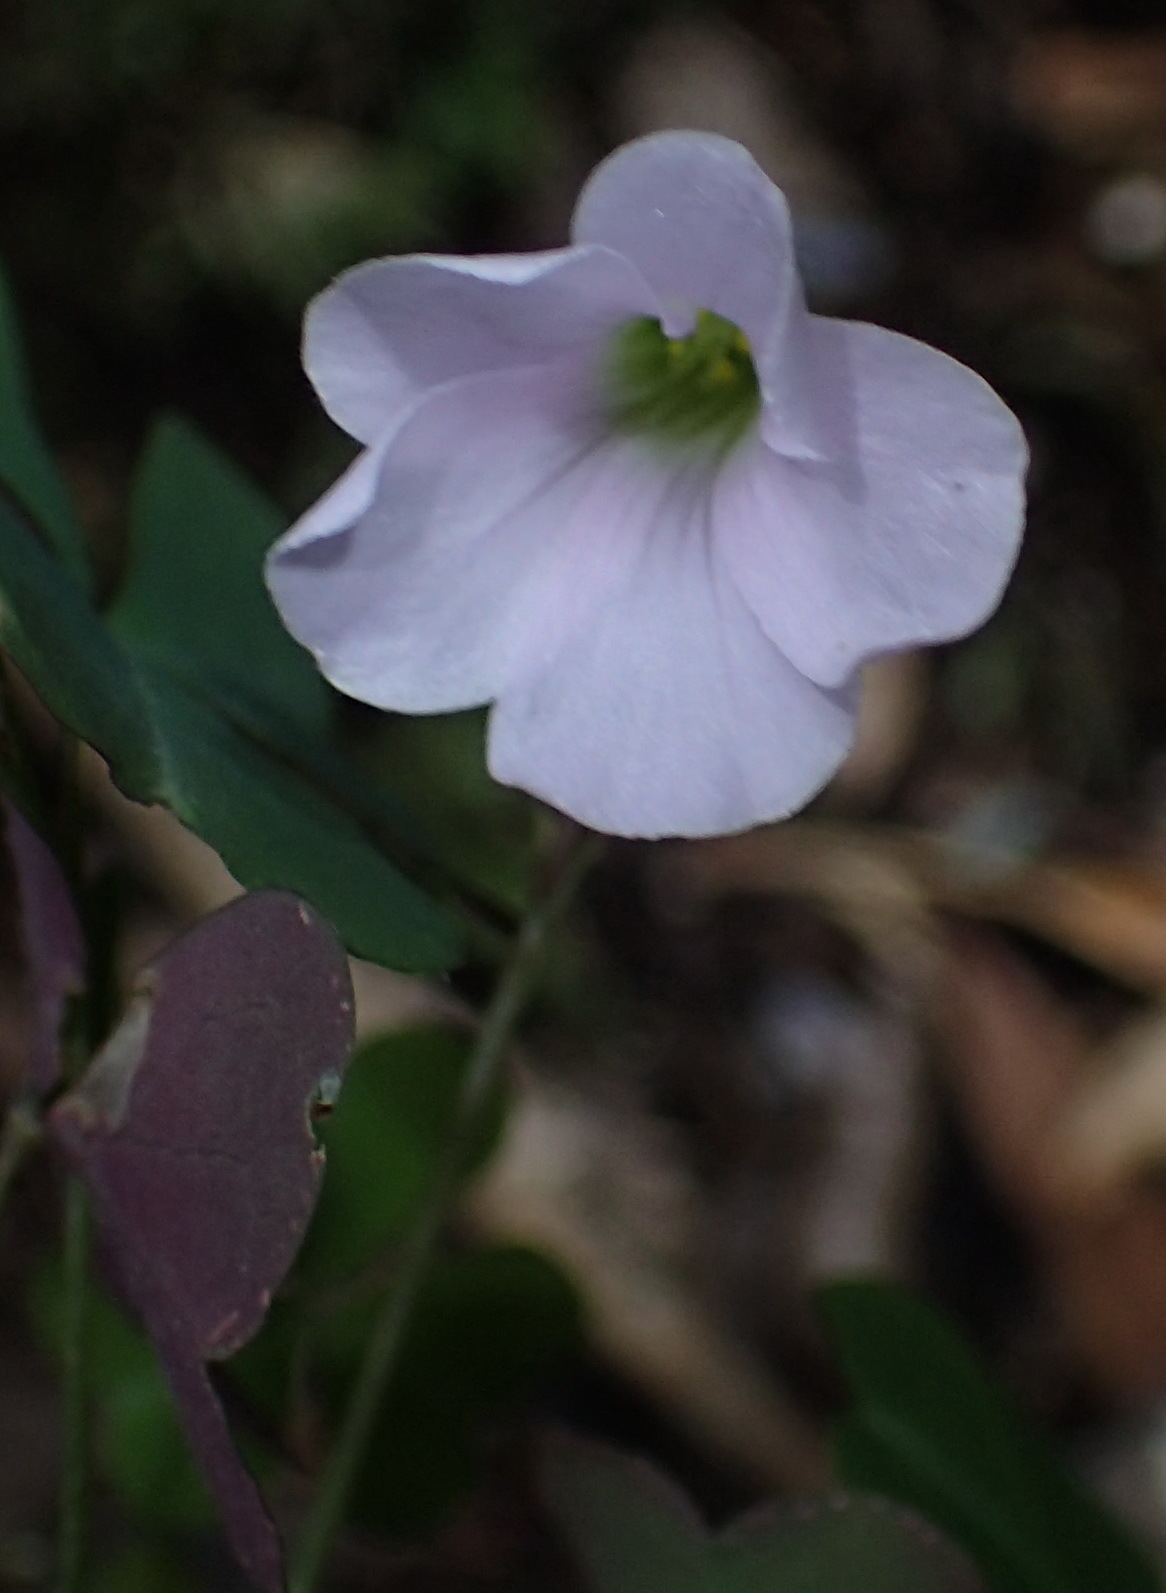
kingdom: Plantae
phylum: Tracheophyta
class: Magnoliopsida
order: Oxalidales
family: Oxalidaceae
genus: Oxalis
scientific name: Oxalis incarnata
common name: Pale pink-sorrel
